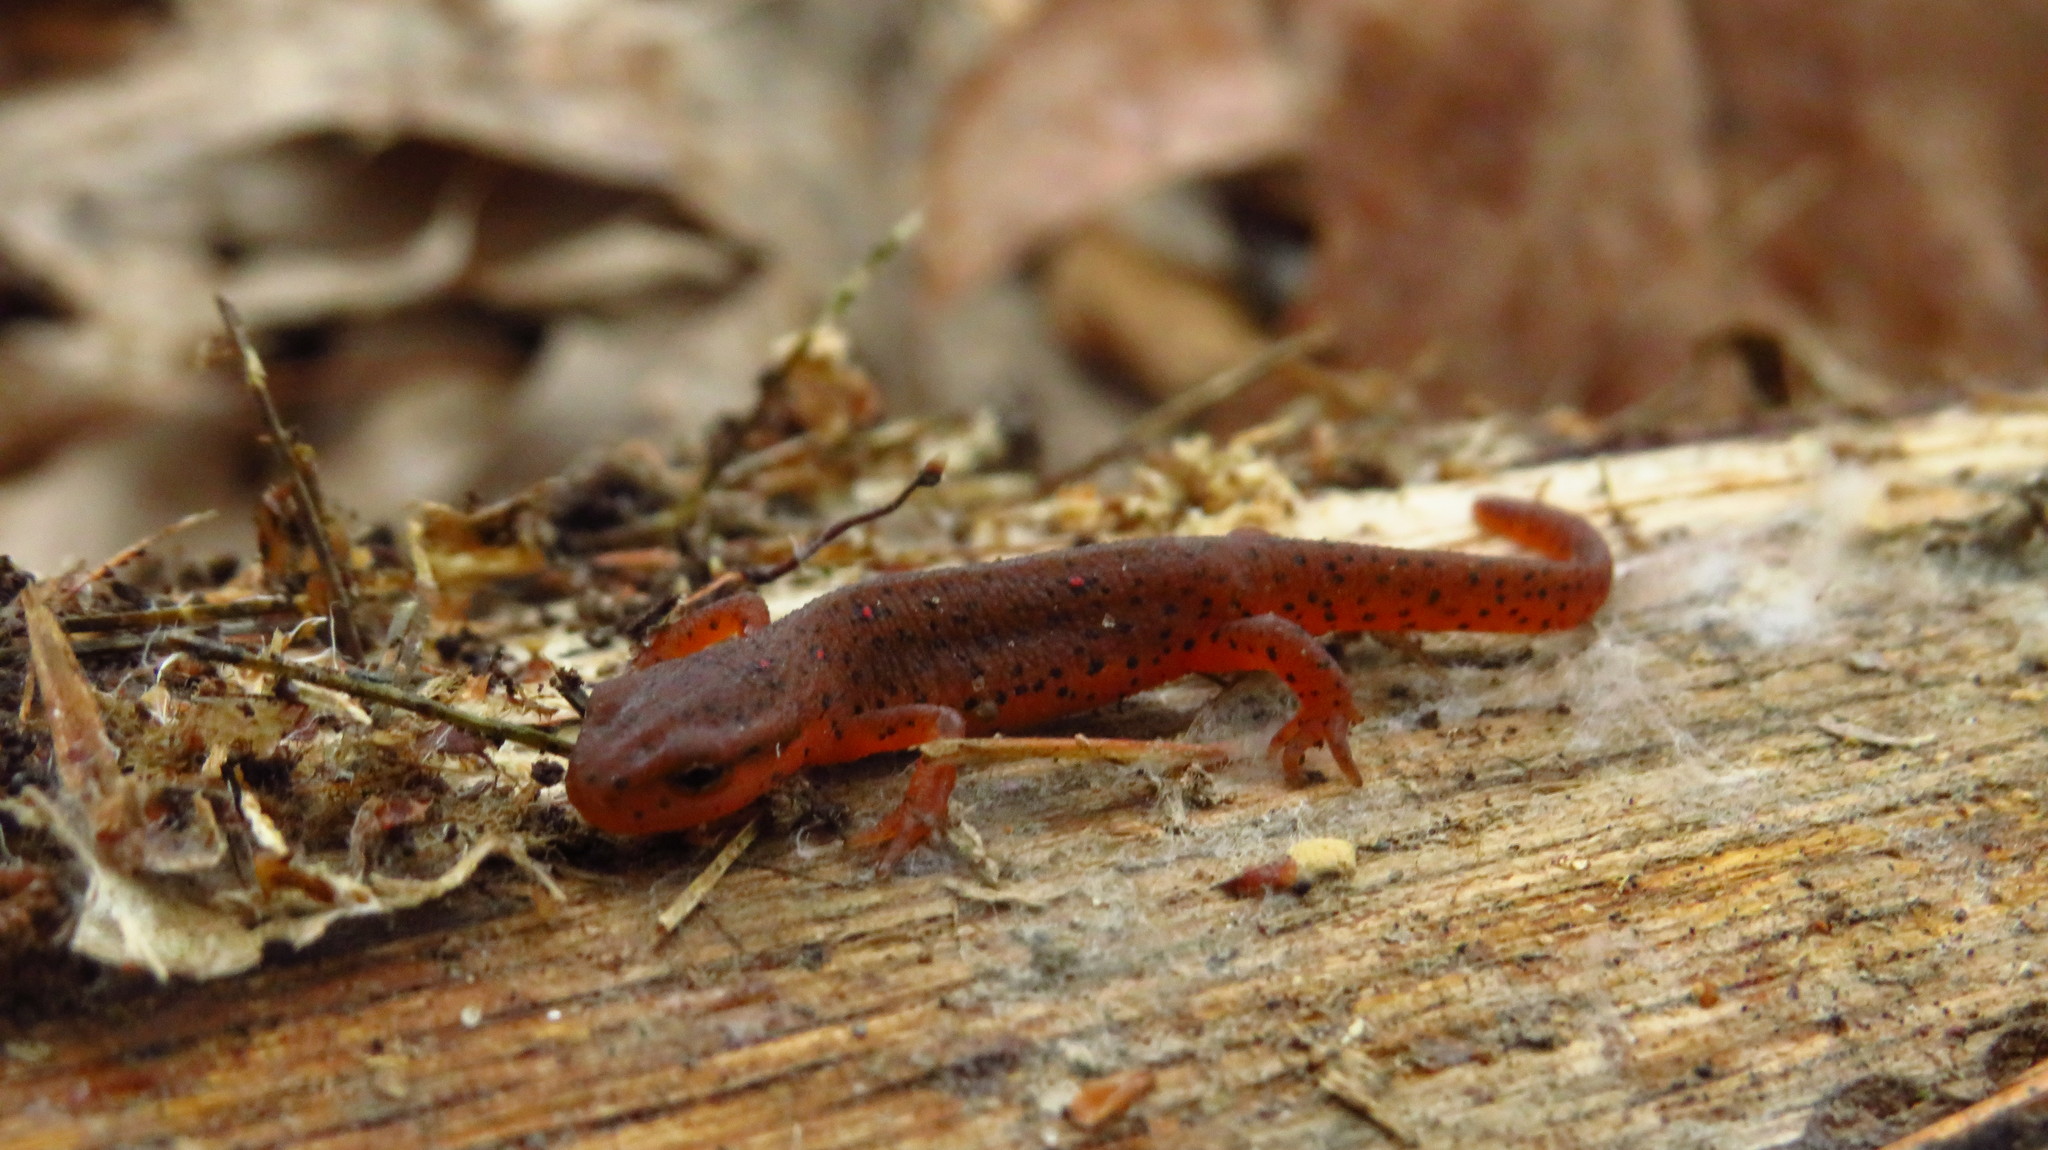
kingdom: Animalia
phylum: Chordata
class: Amphibia
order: Caudata
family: Salamandridae
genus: Notophthalmus
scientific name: Notophthalmus viridescens
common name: Eastern newt
